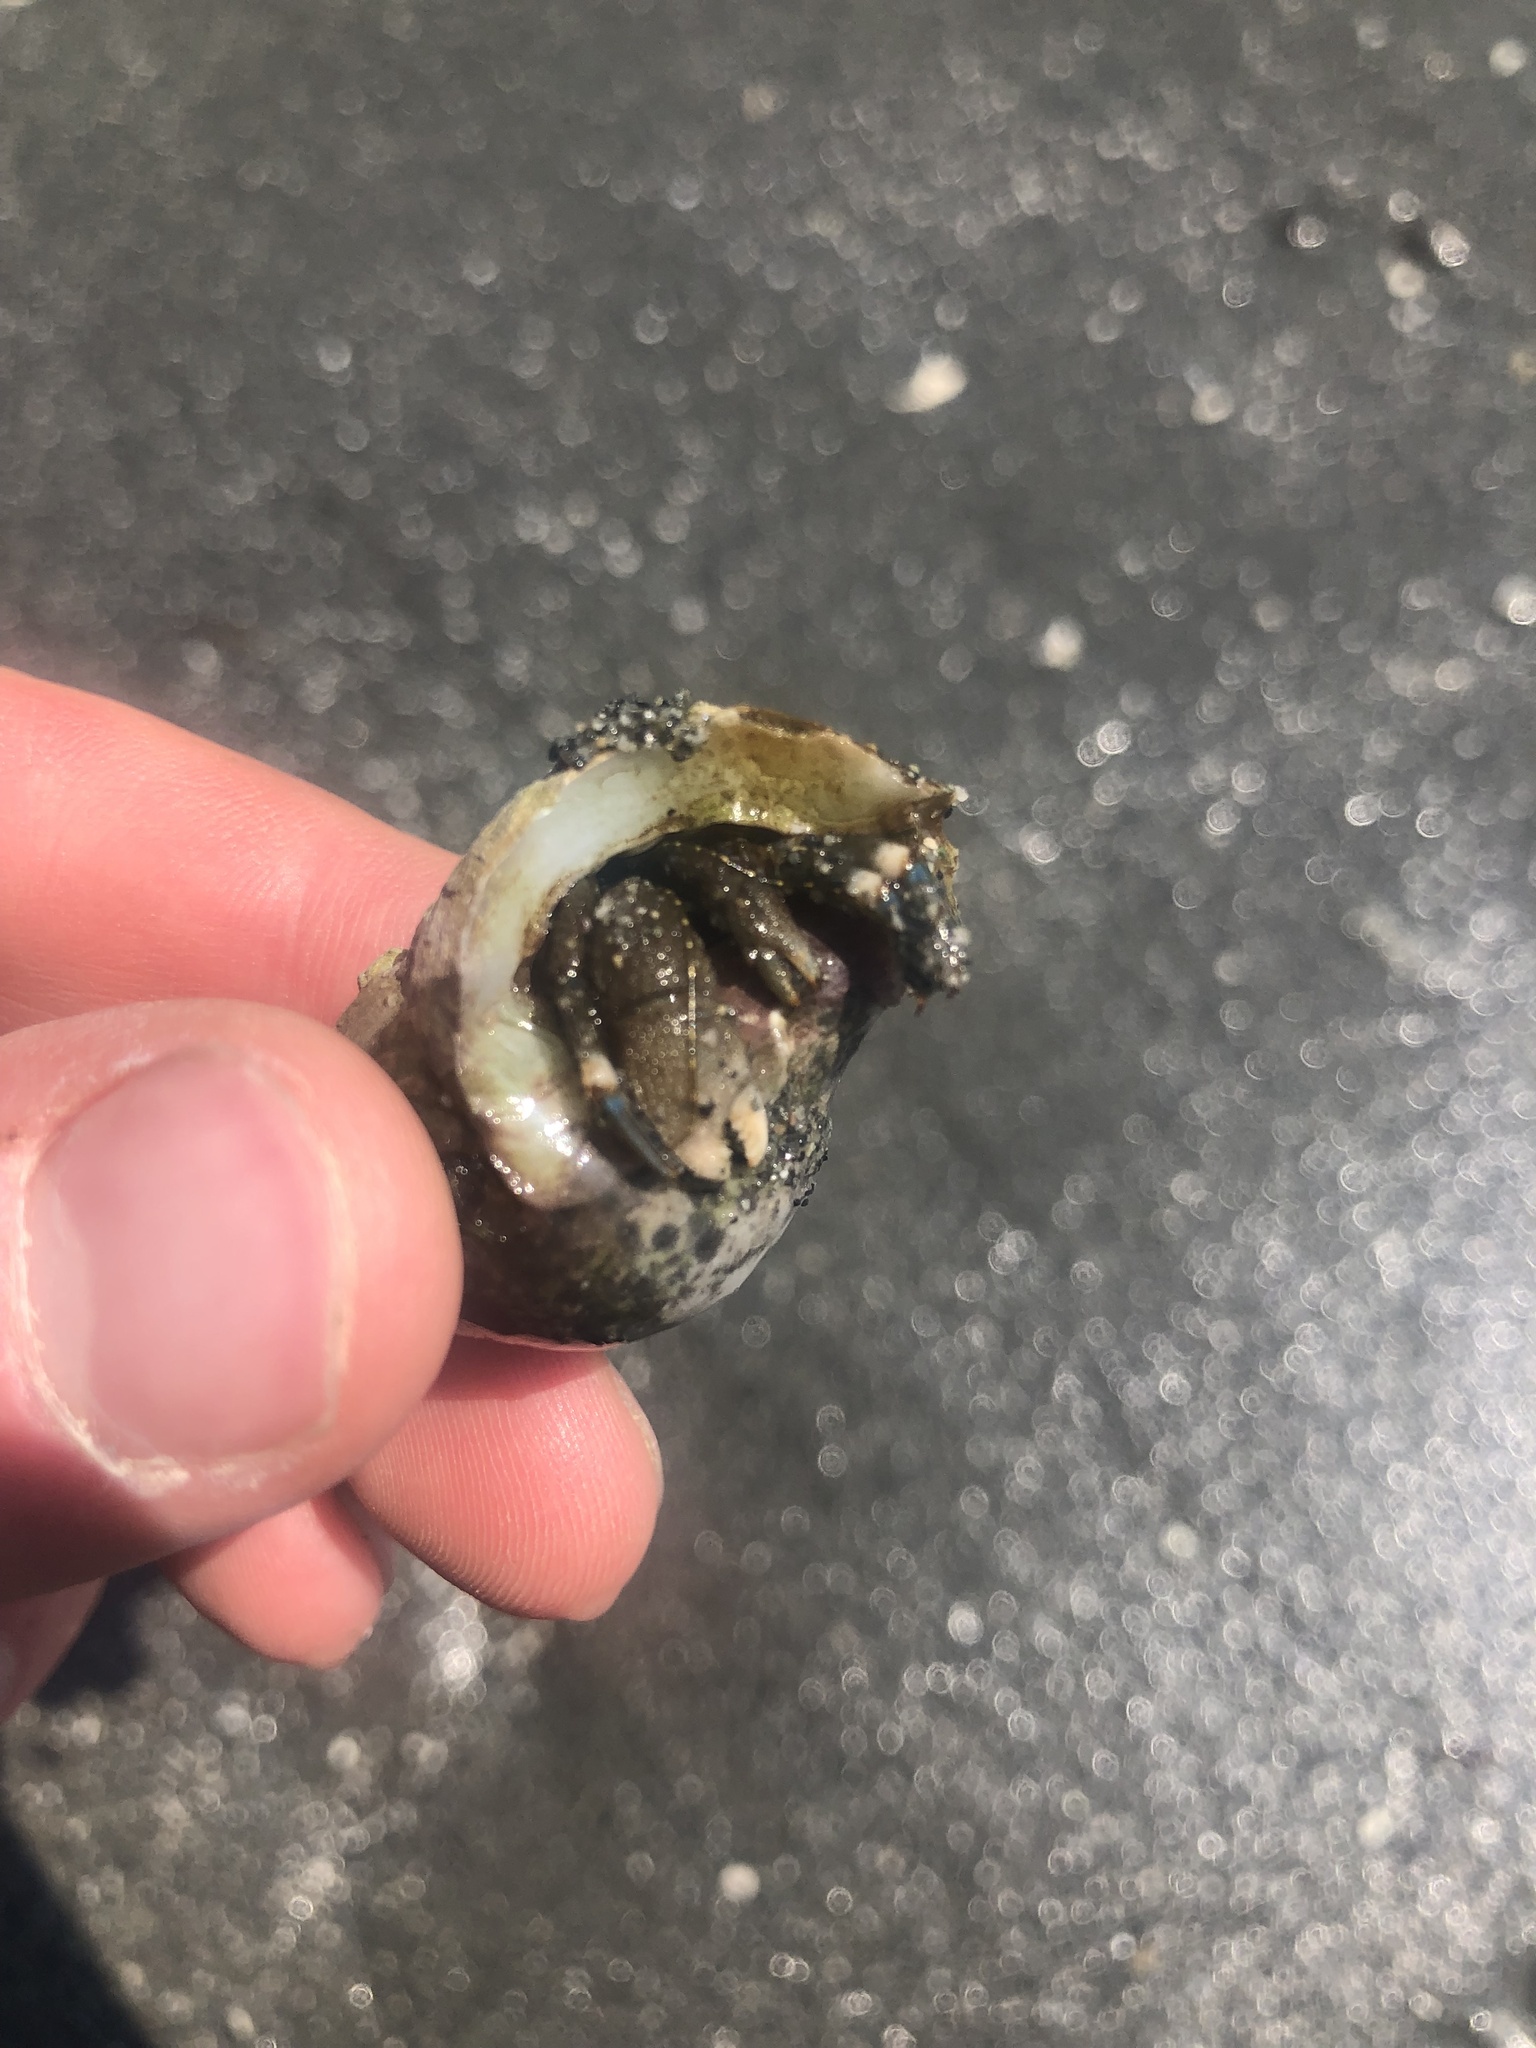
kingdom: Animalia
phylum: Arthropoda
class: Malacostraca
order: Decapoda
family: Paguridae
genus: Pagurus
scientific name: Pagurus hirsutiusculus
